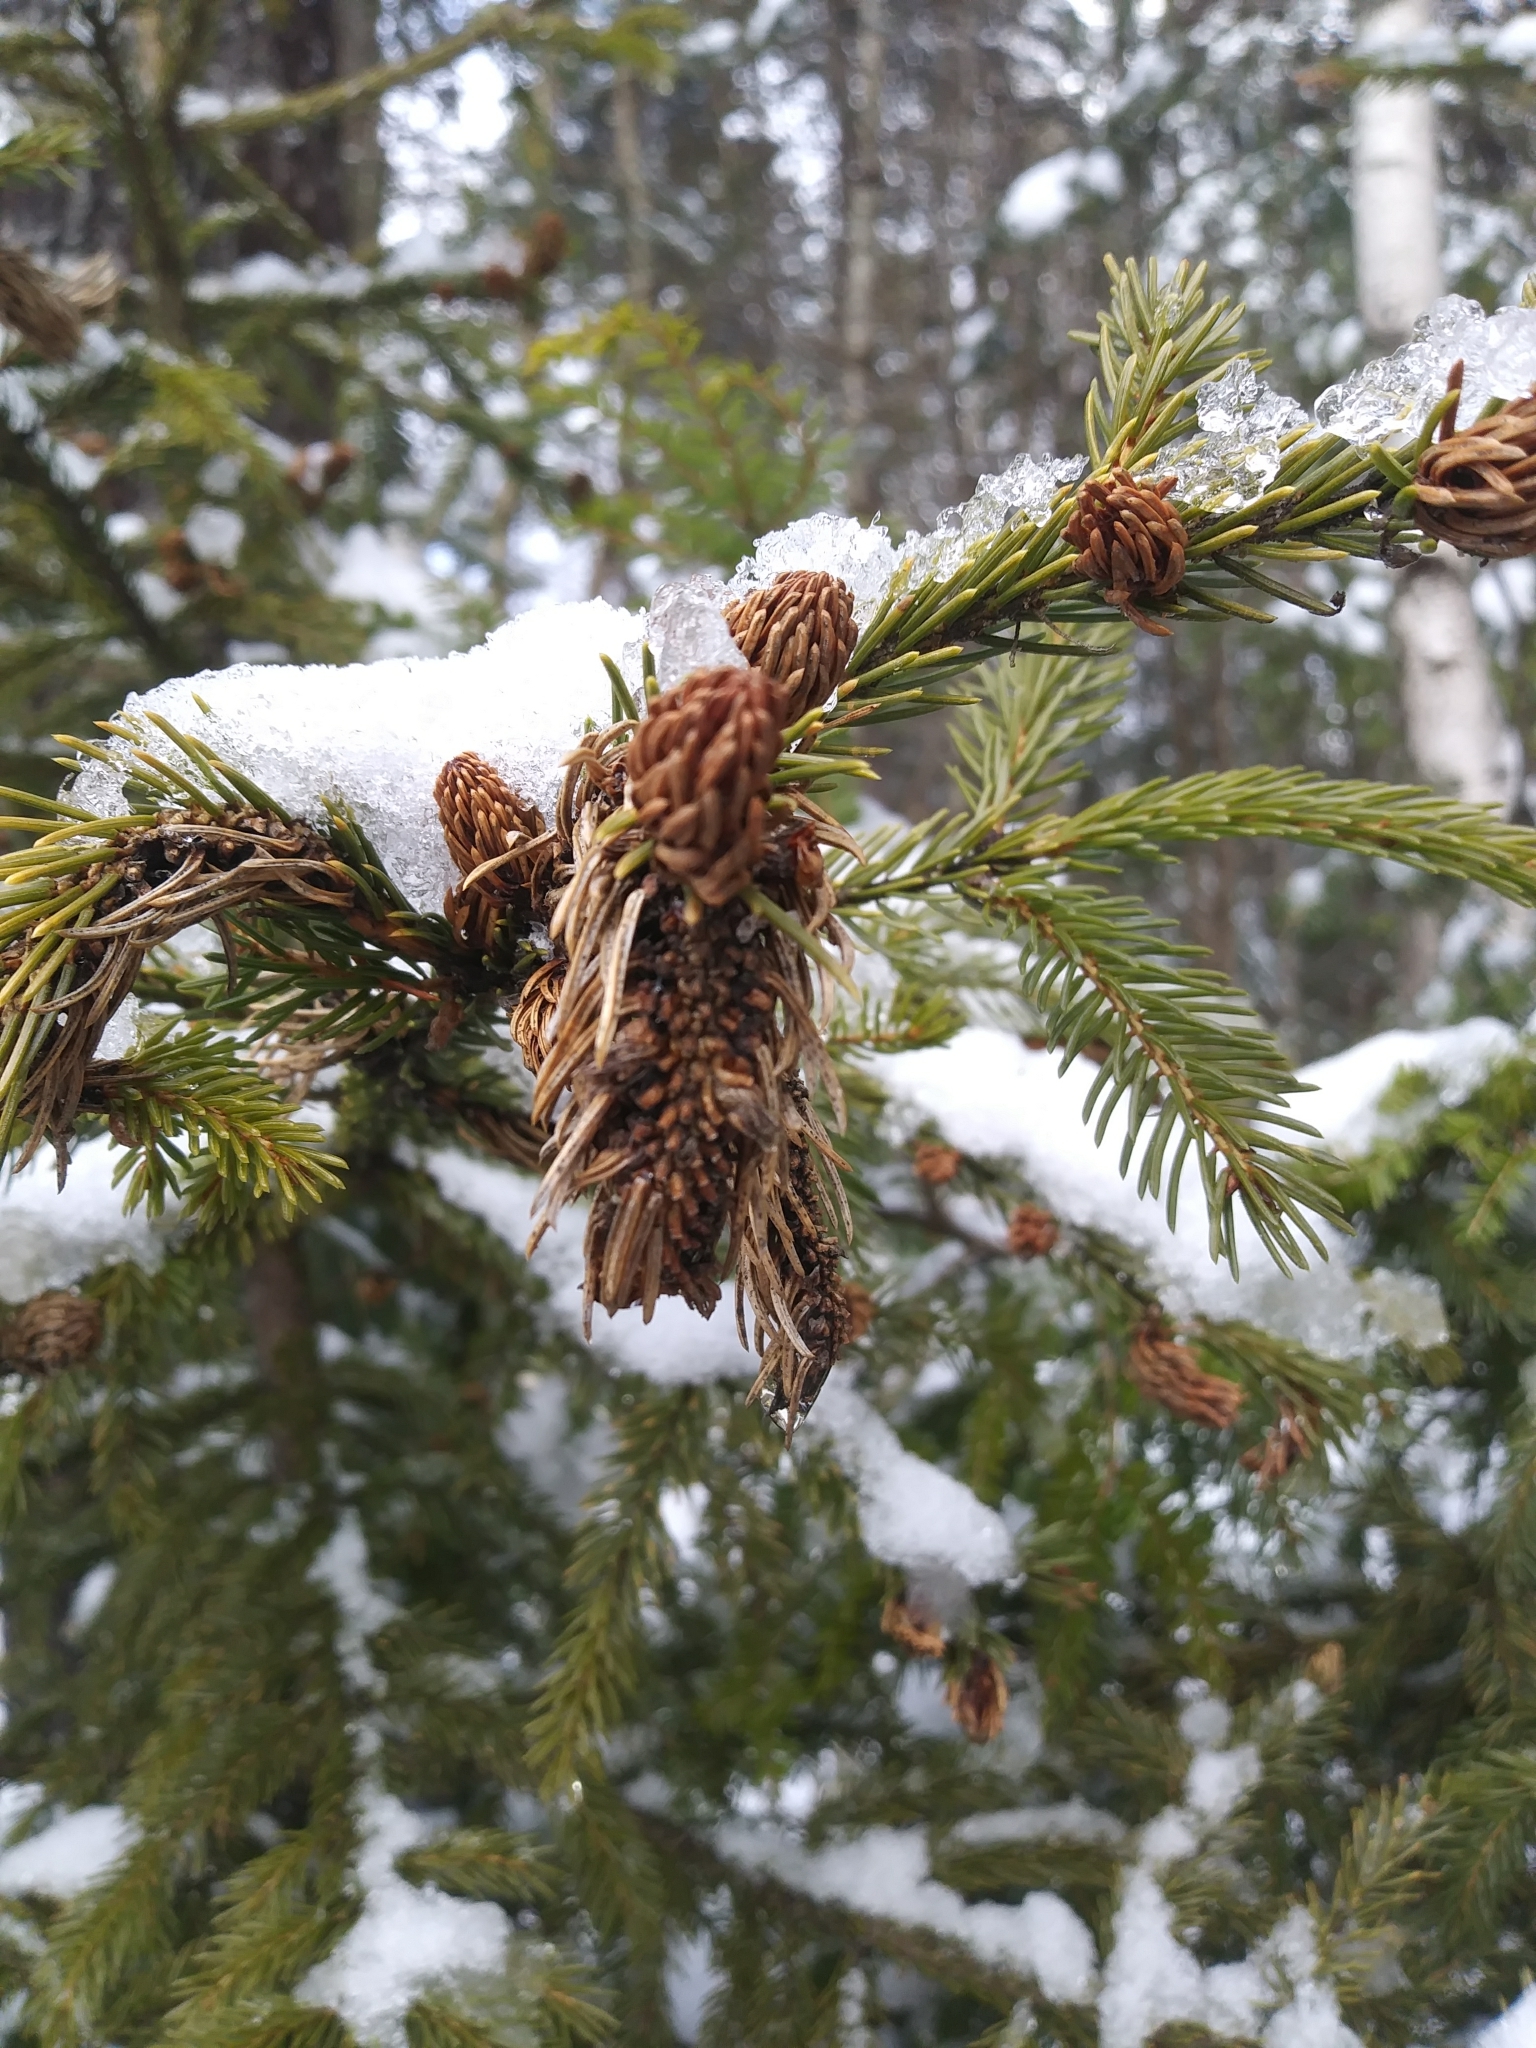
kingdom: Plantae
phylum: Tracheophyta
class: Pinopsida
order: Pinales
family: Pinaceae
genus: Picea
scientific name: Picea rubens
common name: Red spruce
